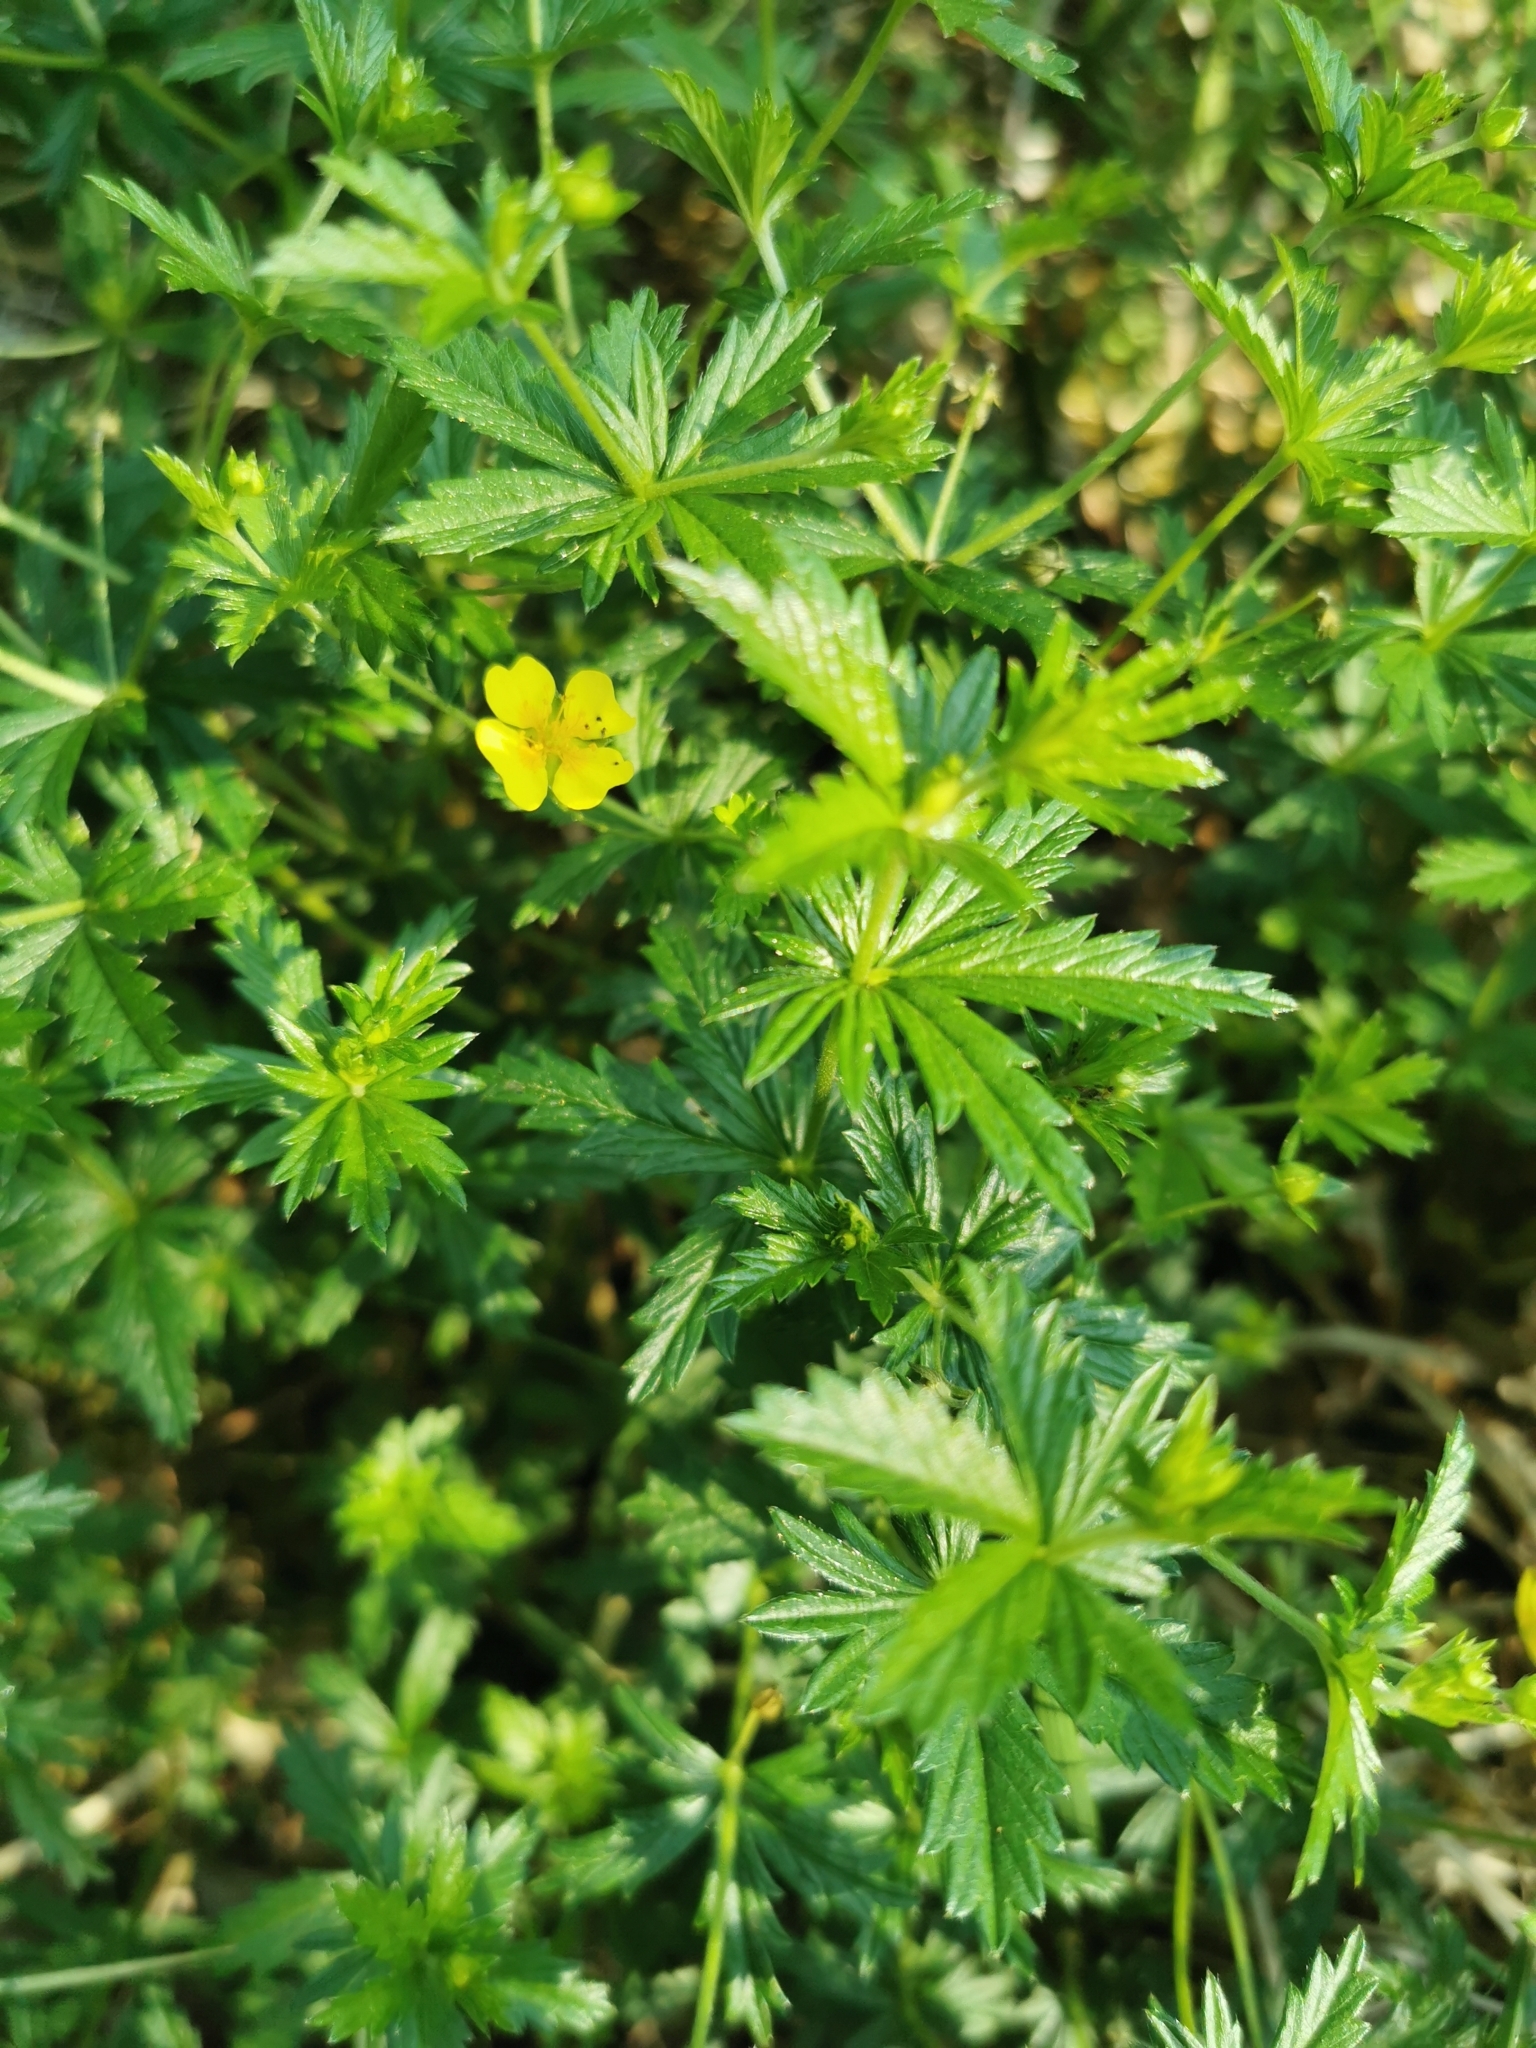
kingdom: Plantae
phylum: Tracheophyta
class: Magnoliopsida
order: Rosales
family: Rosaceae
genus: Potentilla
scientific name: Potentilla erecta
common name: Tormentil
